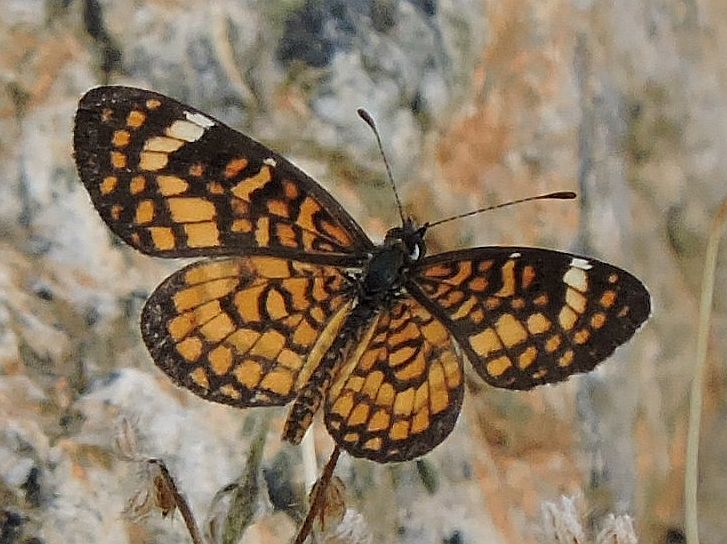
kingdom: Animalia
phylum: Arthropoda
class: Insecta
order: Lepidoptera
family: Nymphalidae
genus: Dymasia
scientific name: Dymasia dymas
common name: Tiny checkerspot
